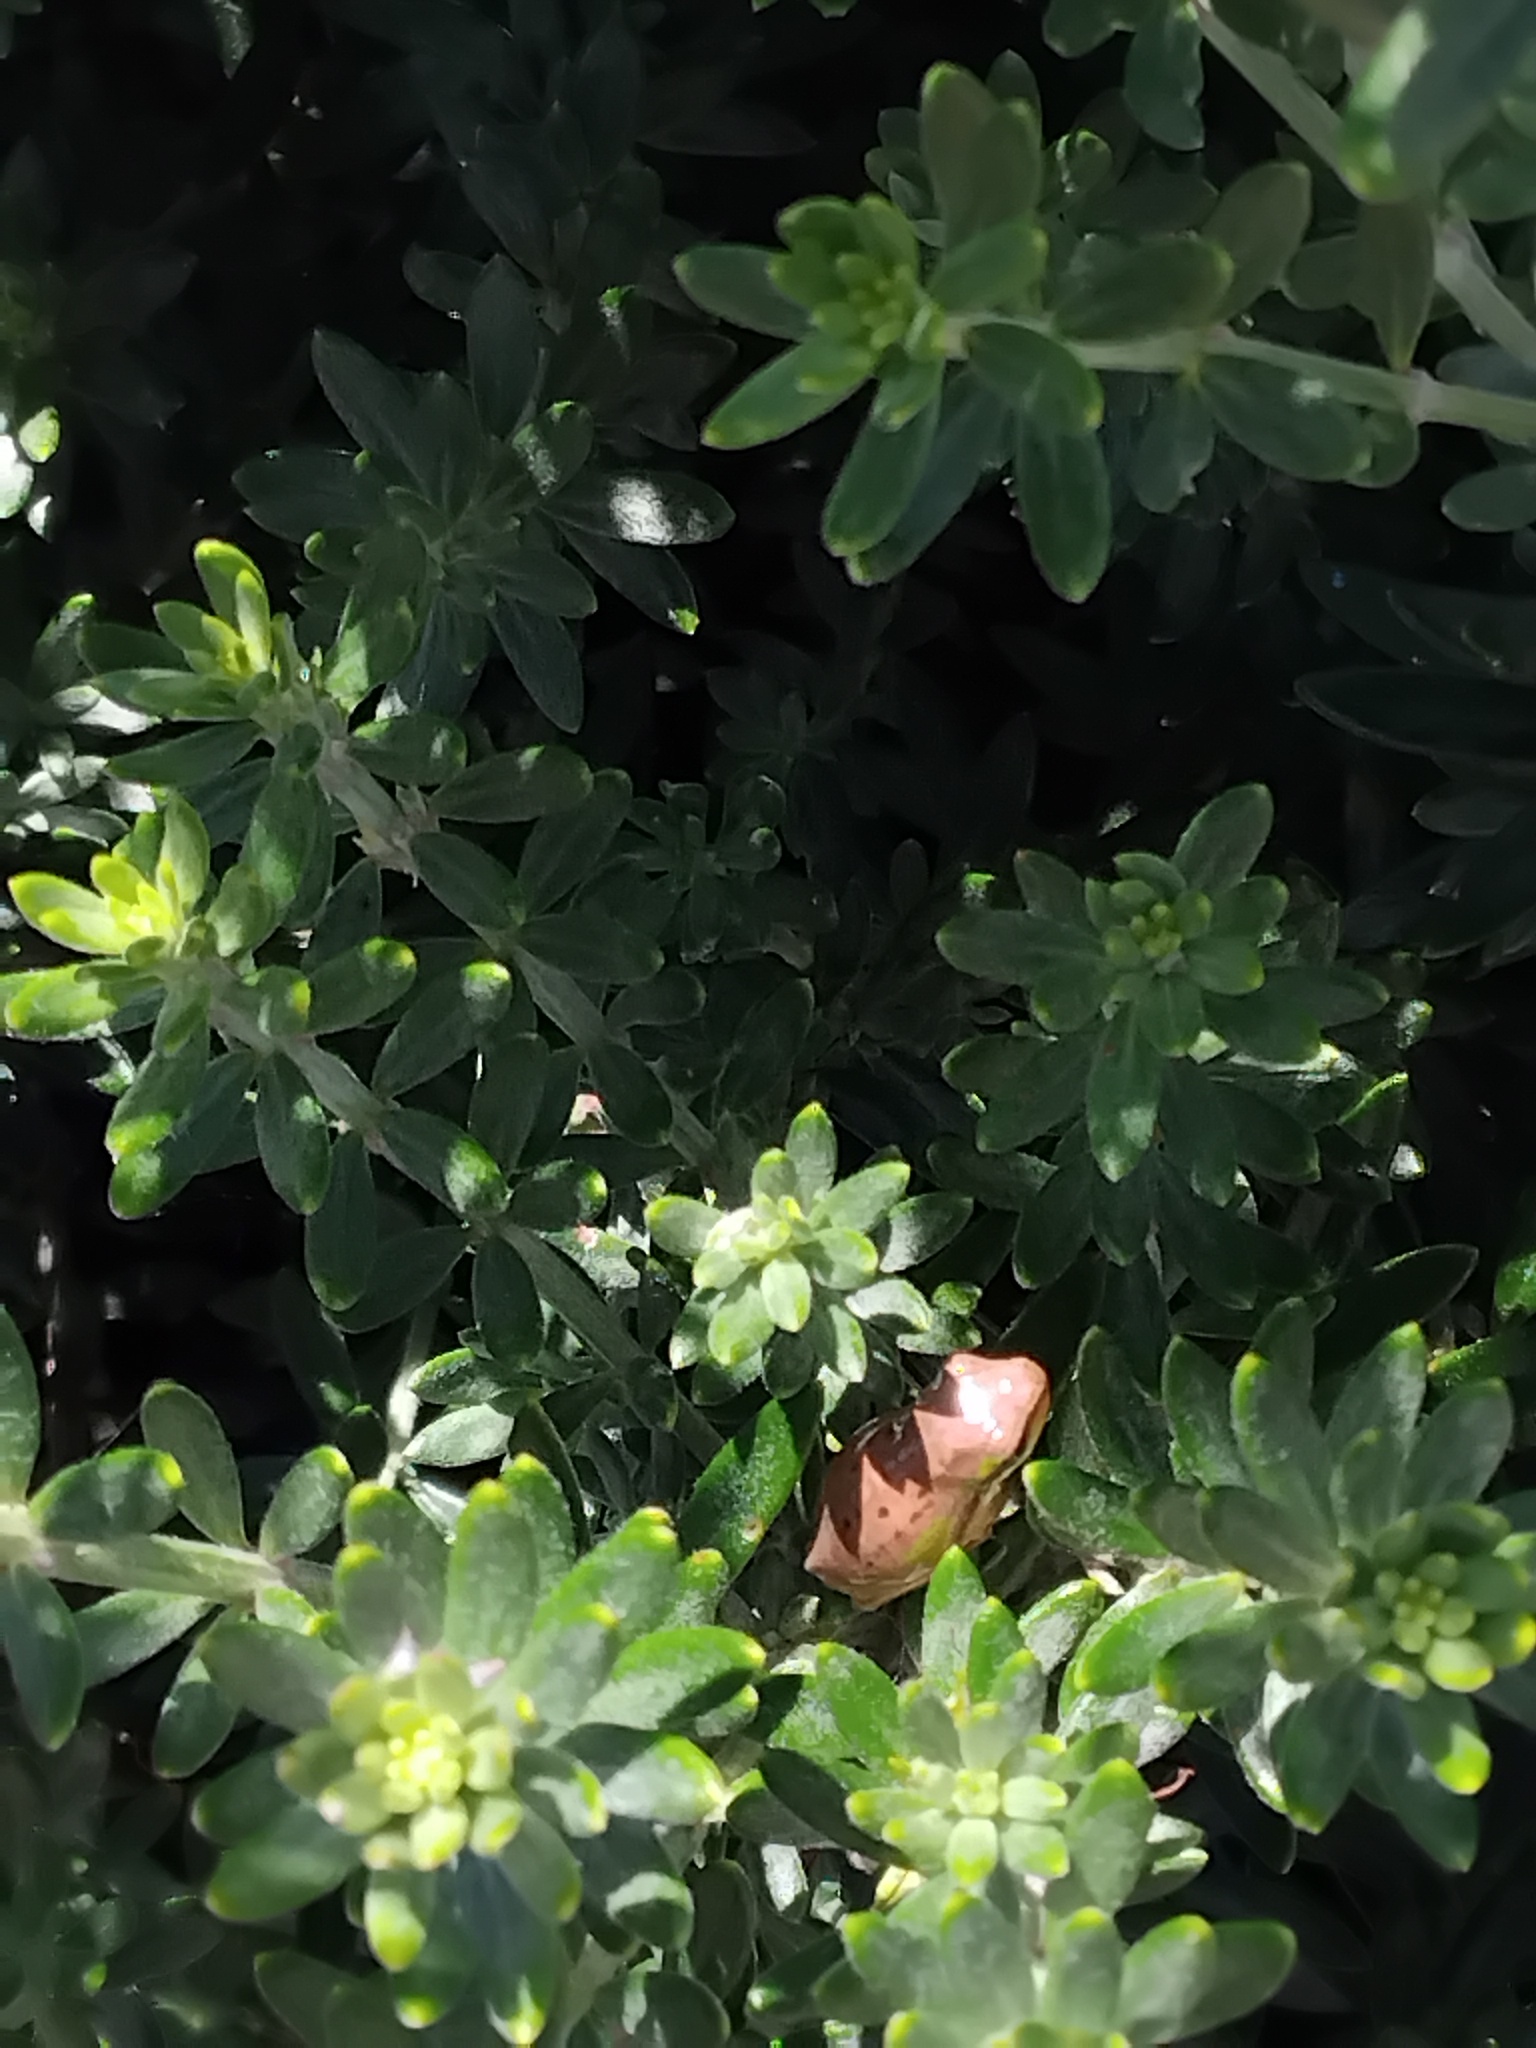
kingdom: Animalia
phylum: Chordata
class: Amphibia
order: Anura
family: Pelodryadidae
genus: Litoria
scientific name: Litoria fallax
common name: Eastern dwarf treefrog
